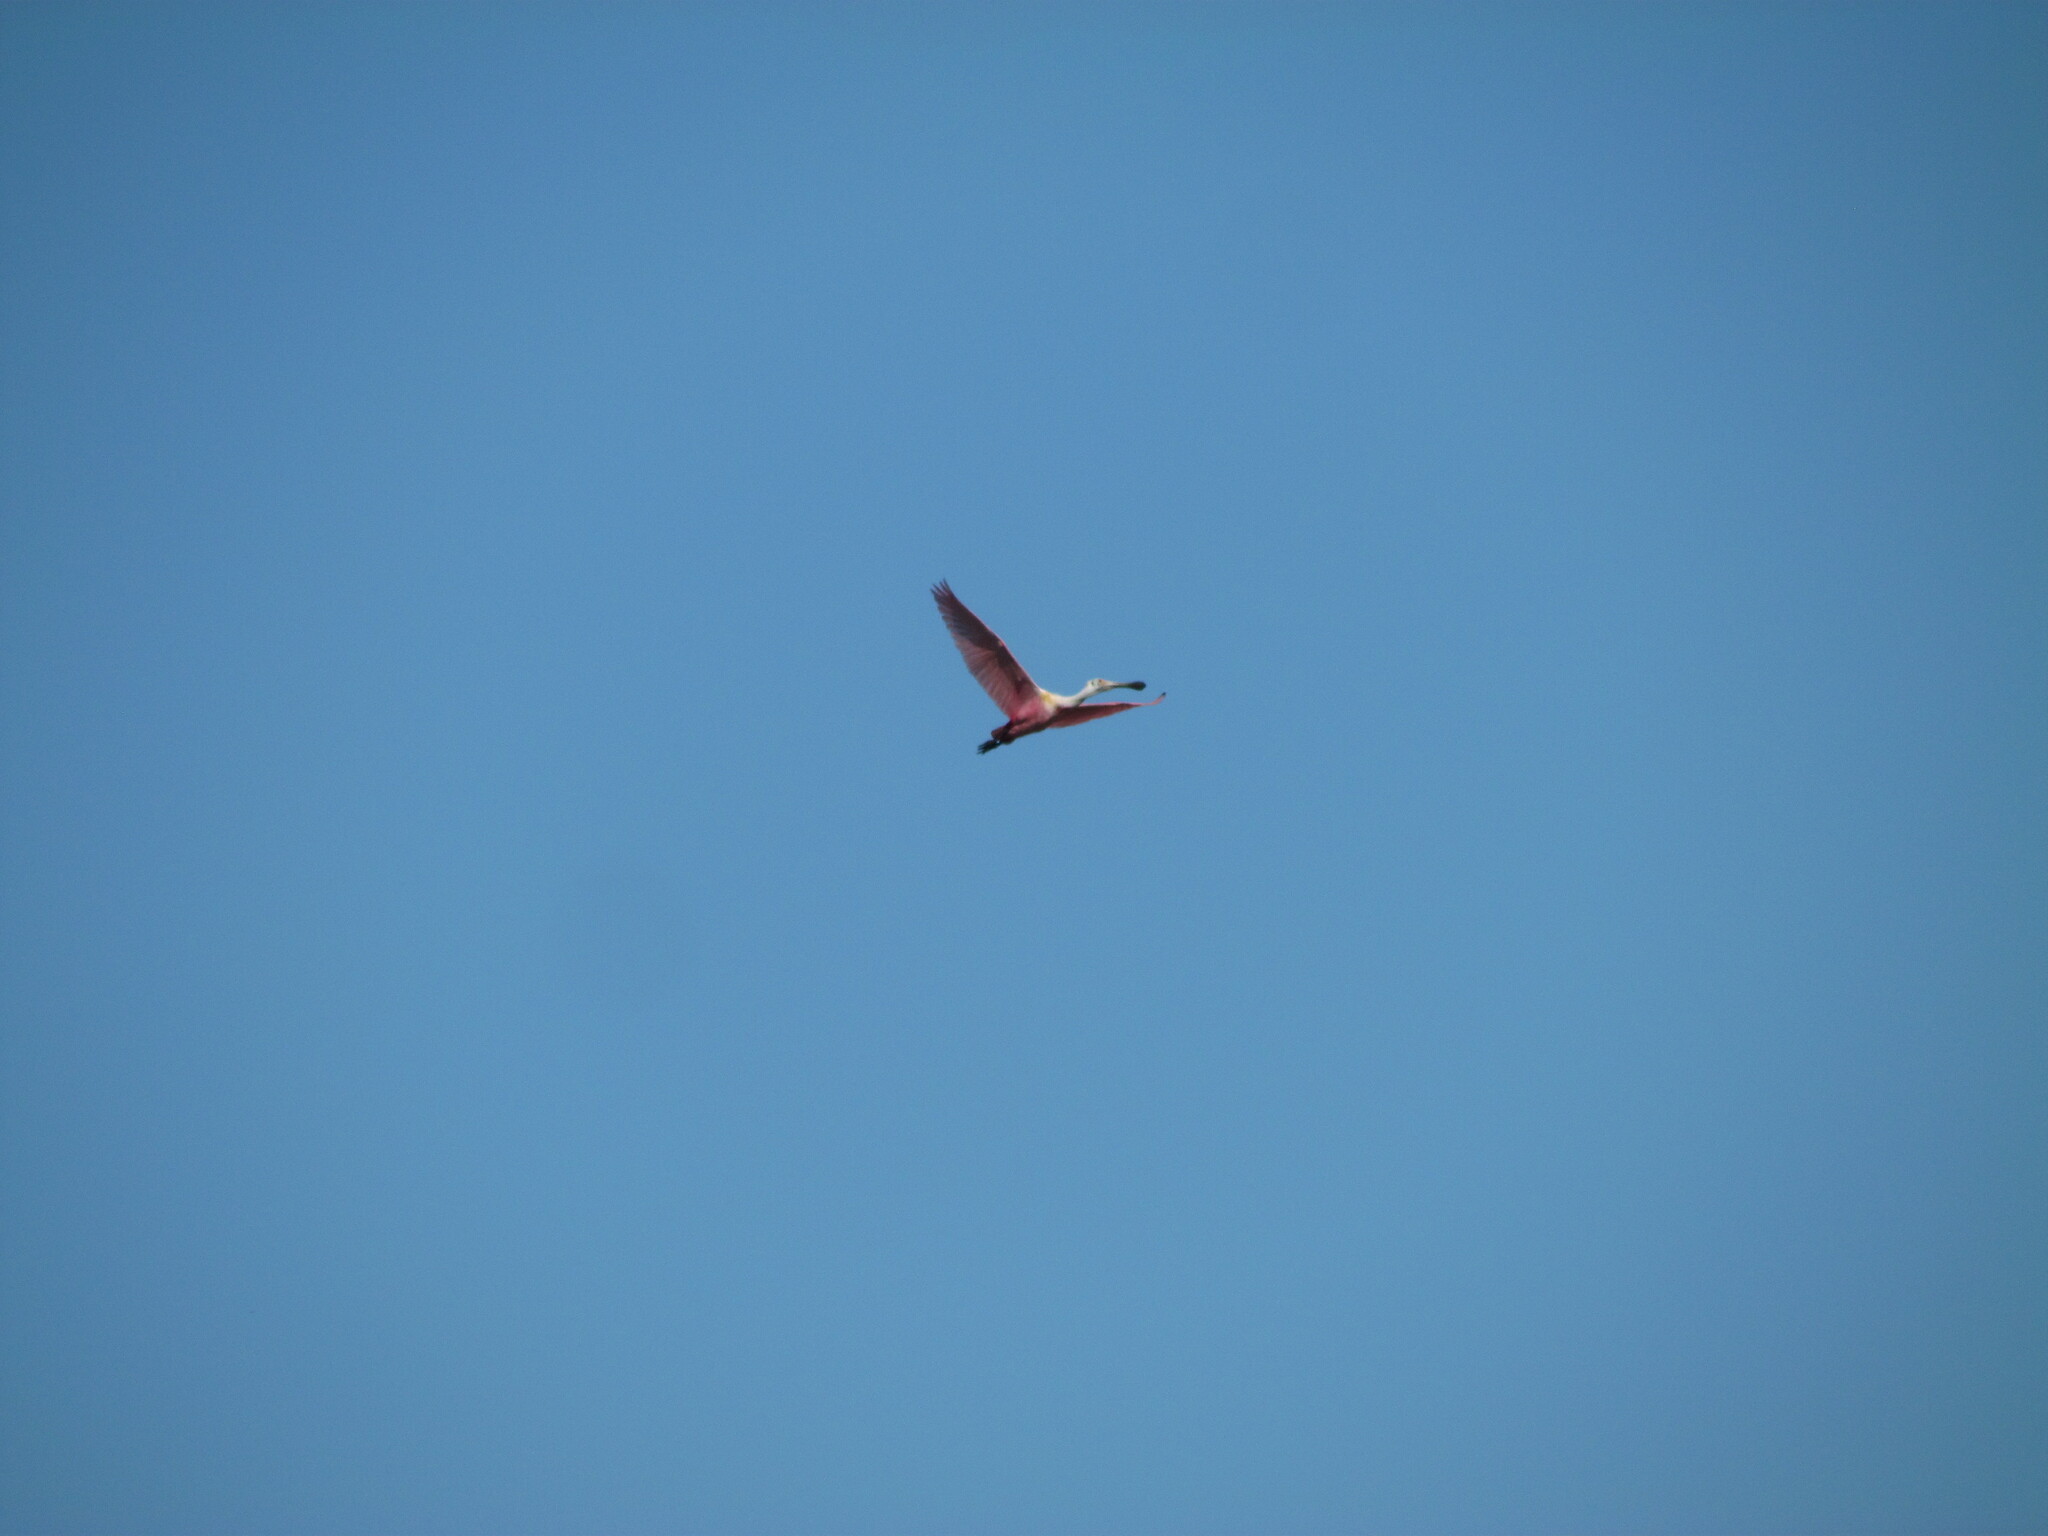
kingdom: Animalia
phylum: Chordata
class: Aves
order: Pelecaniformes
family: Threskiornithidae
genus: Platalea
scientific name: Platalea ajaja
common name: Roseate spoonbill
